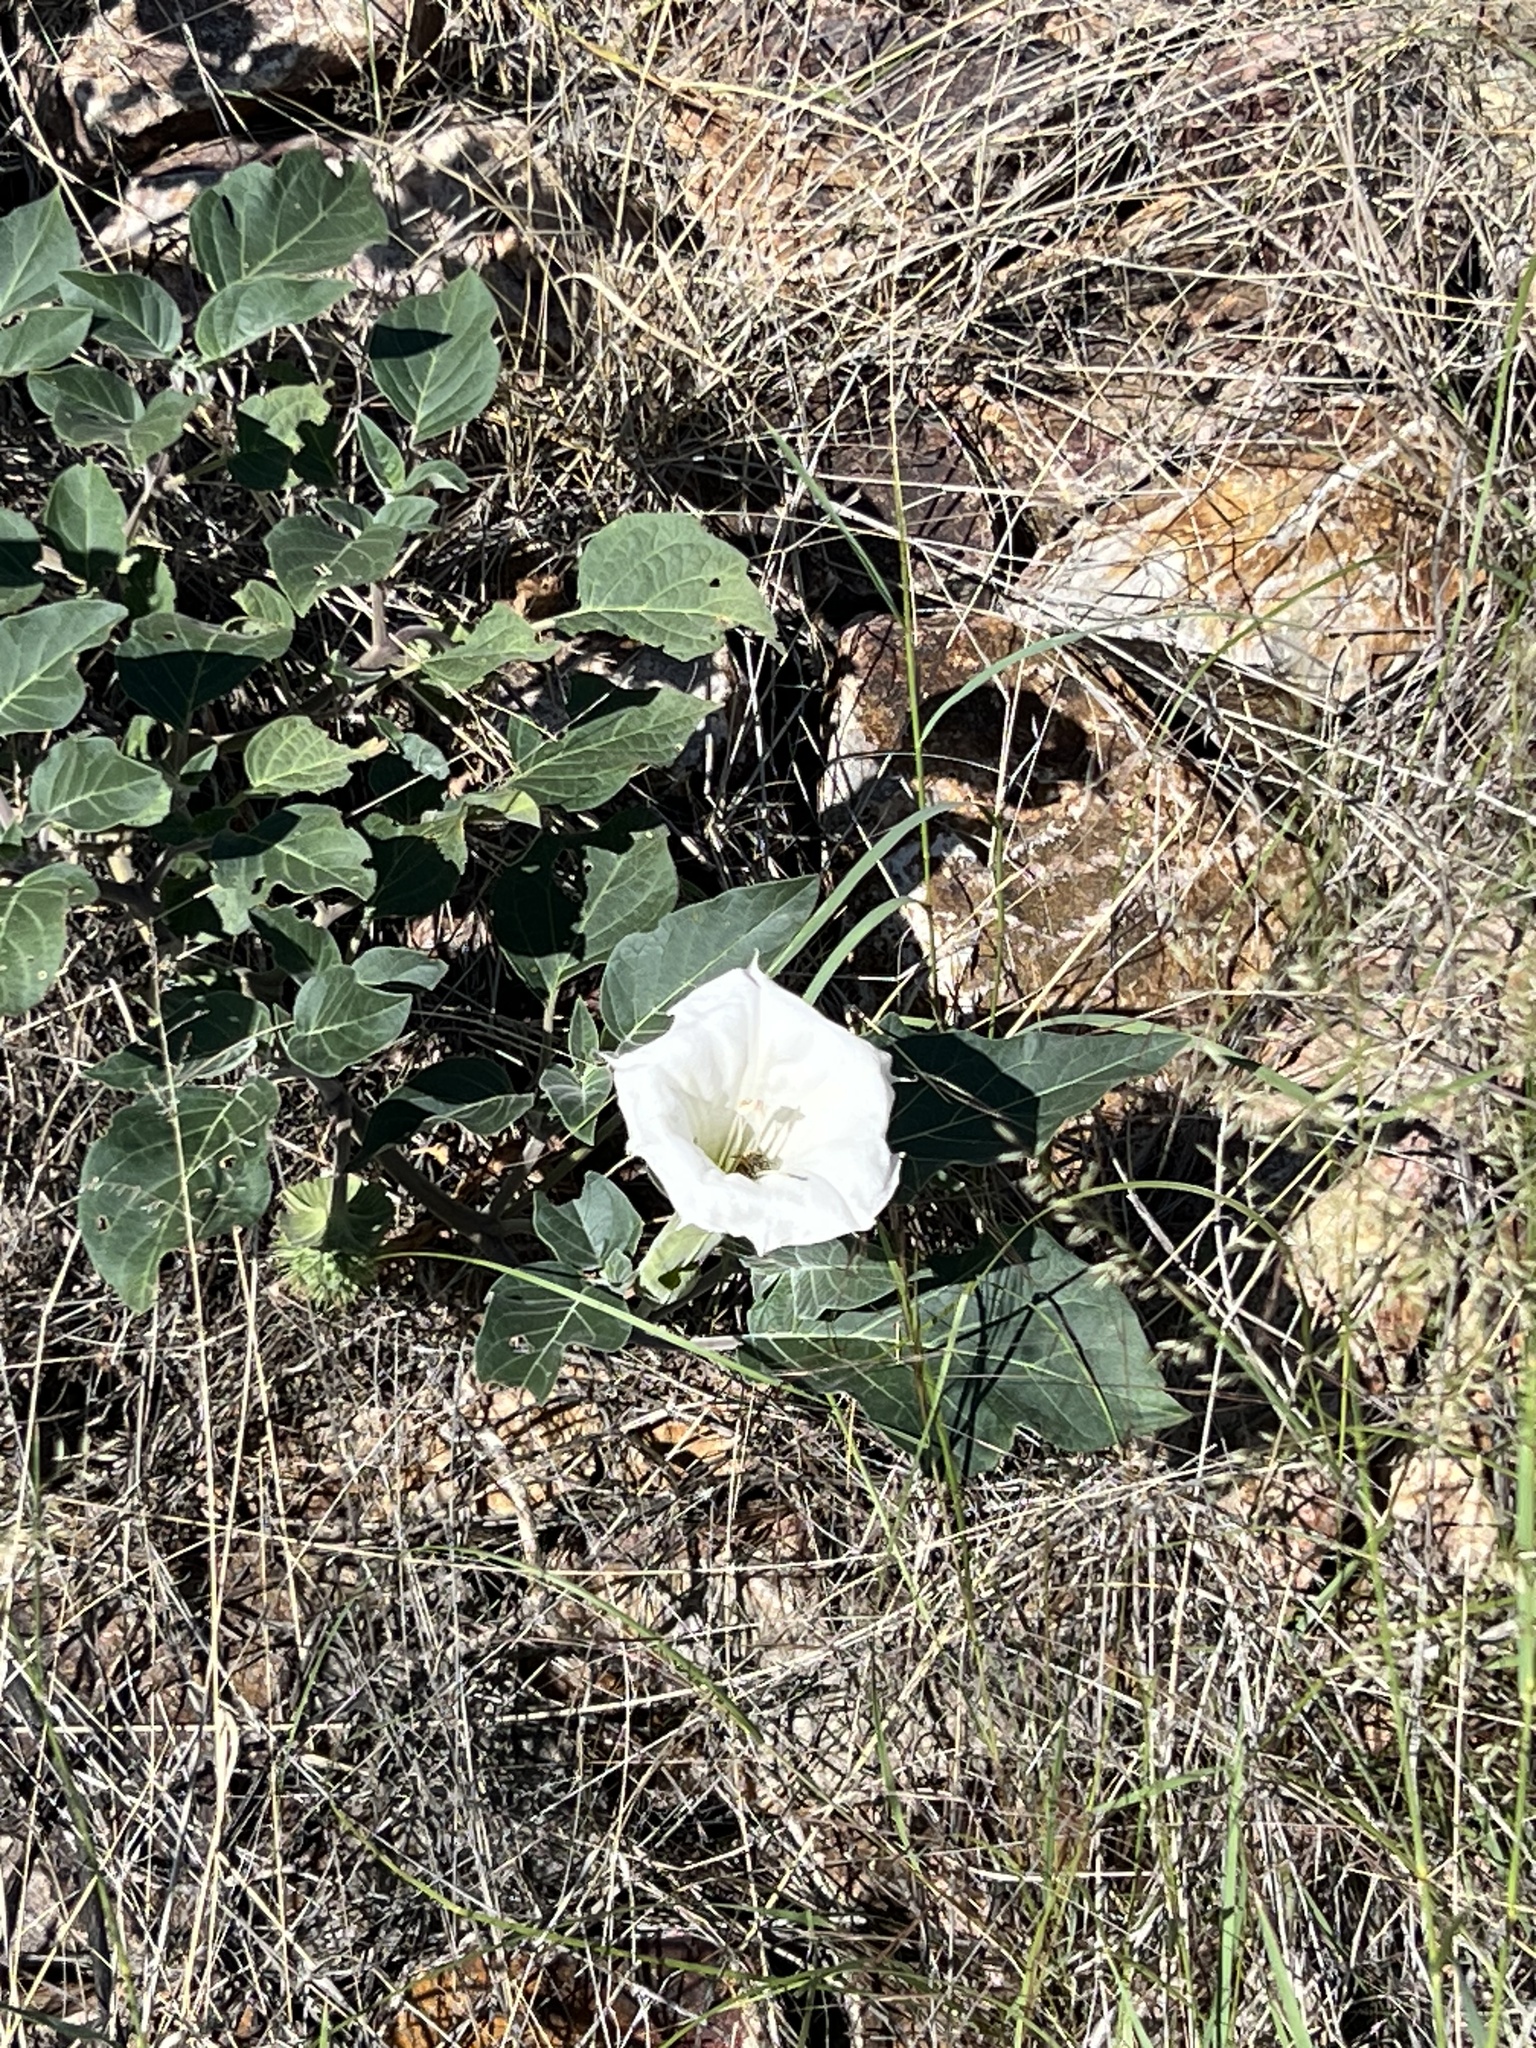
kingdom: Plantae
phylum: Tracheophyta
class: Magnoliopsida
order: Solanales
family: Solanaceae
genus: Datura
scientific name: Datura wrightii
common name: Sacred thorn-apple
